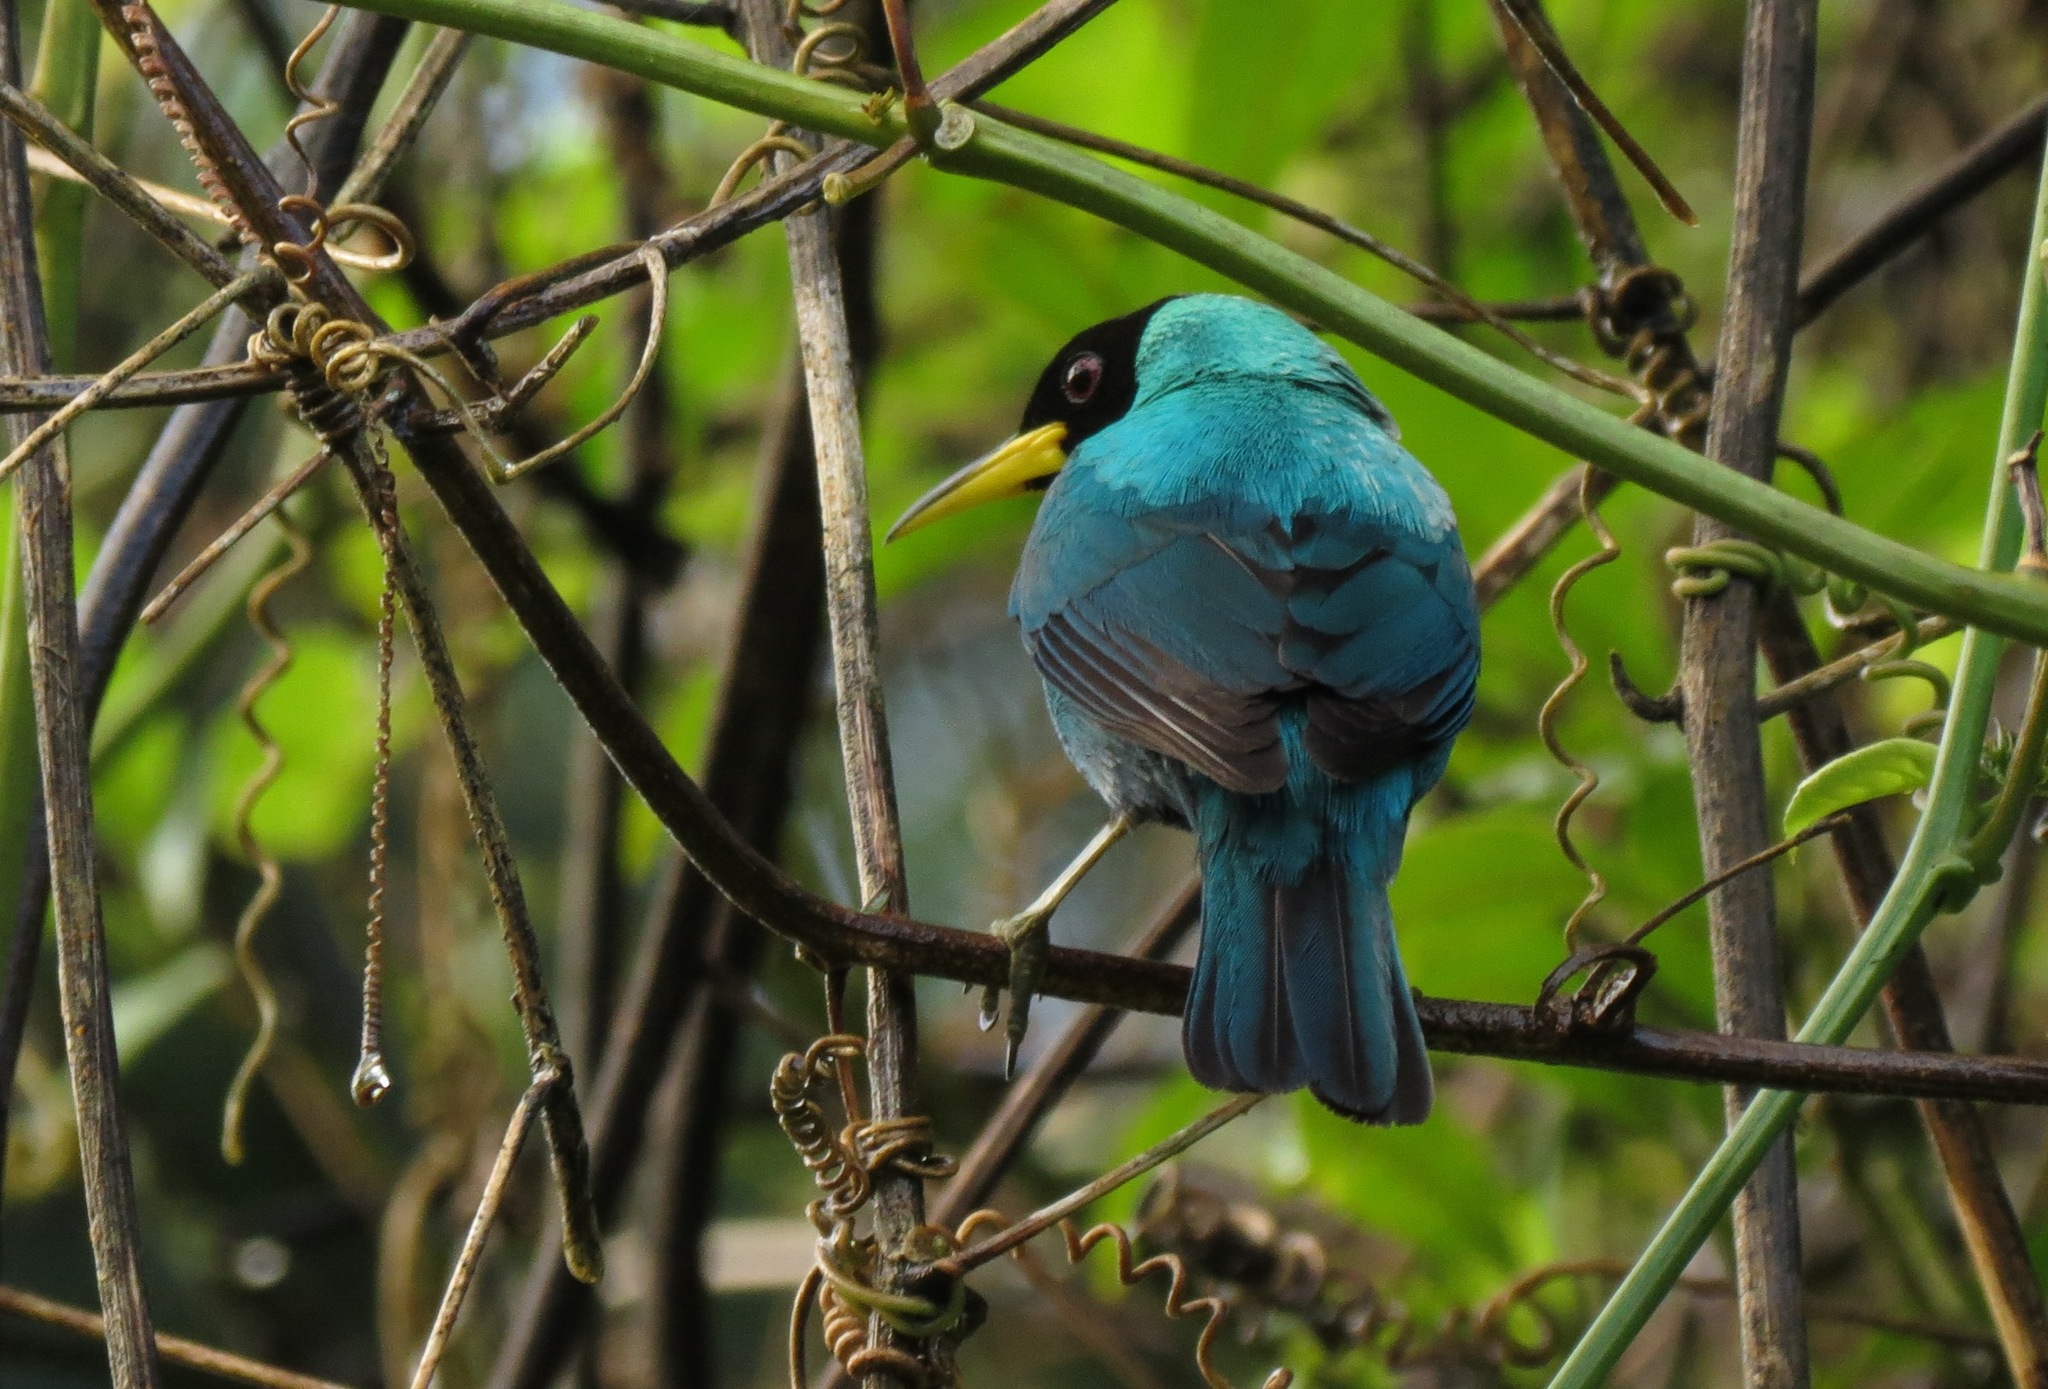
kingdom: Animalia
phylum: Chordata
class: Aves
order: Passeriformes
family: Thraupidae
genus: Chlorophanes
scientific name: Chlorophanes spiza
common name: Green honeycreeper
